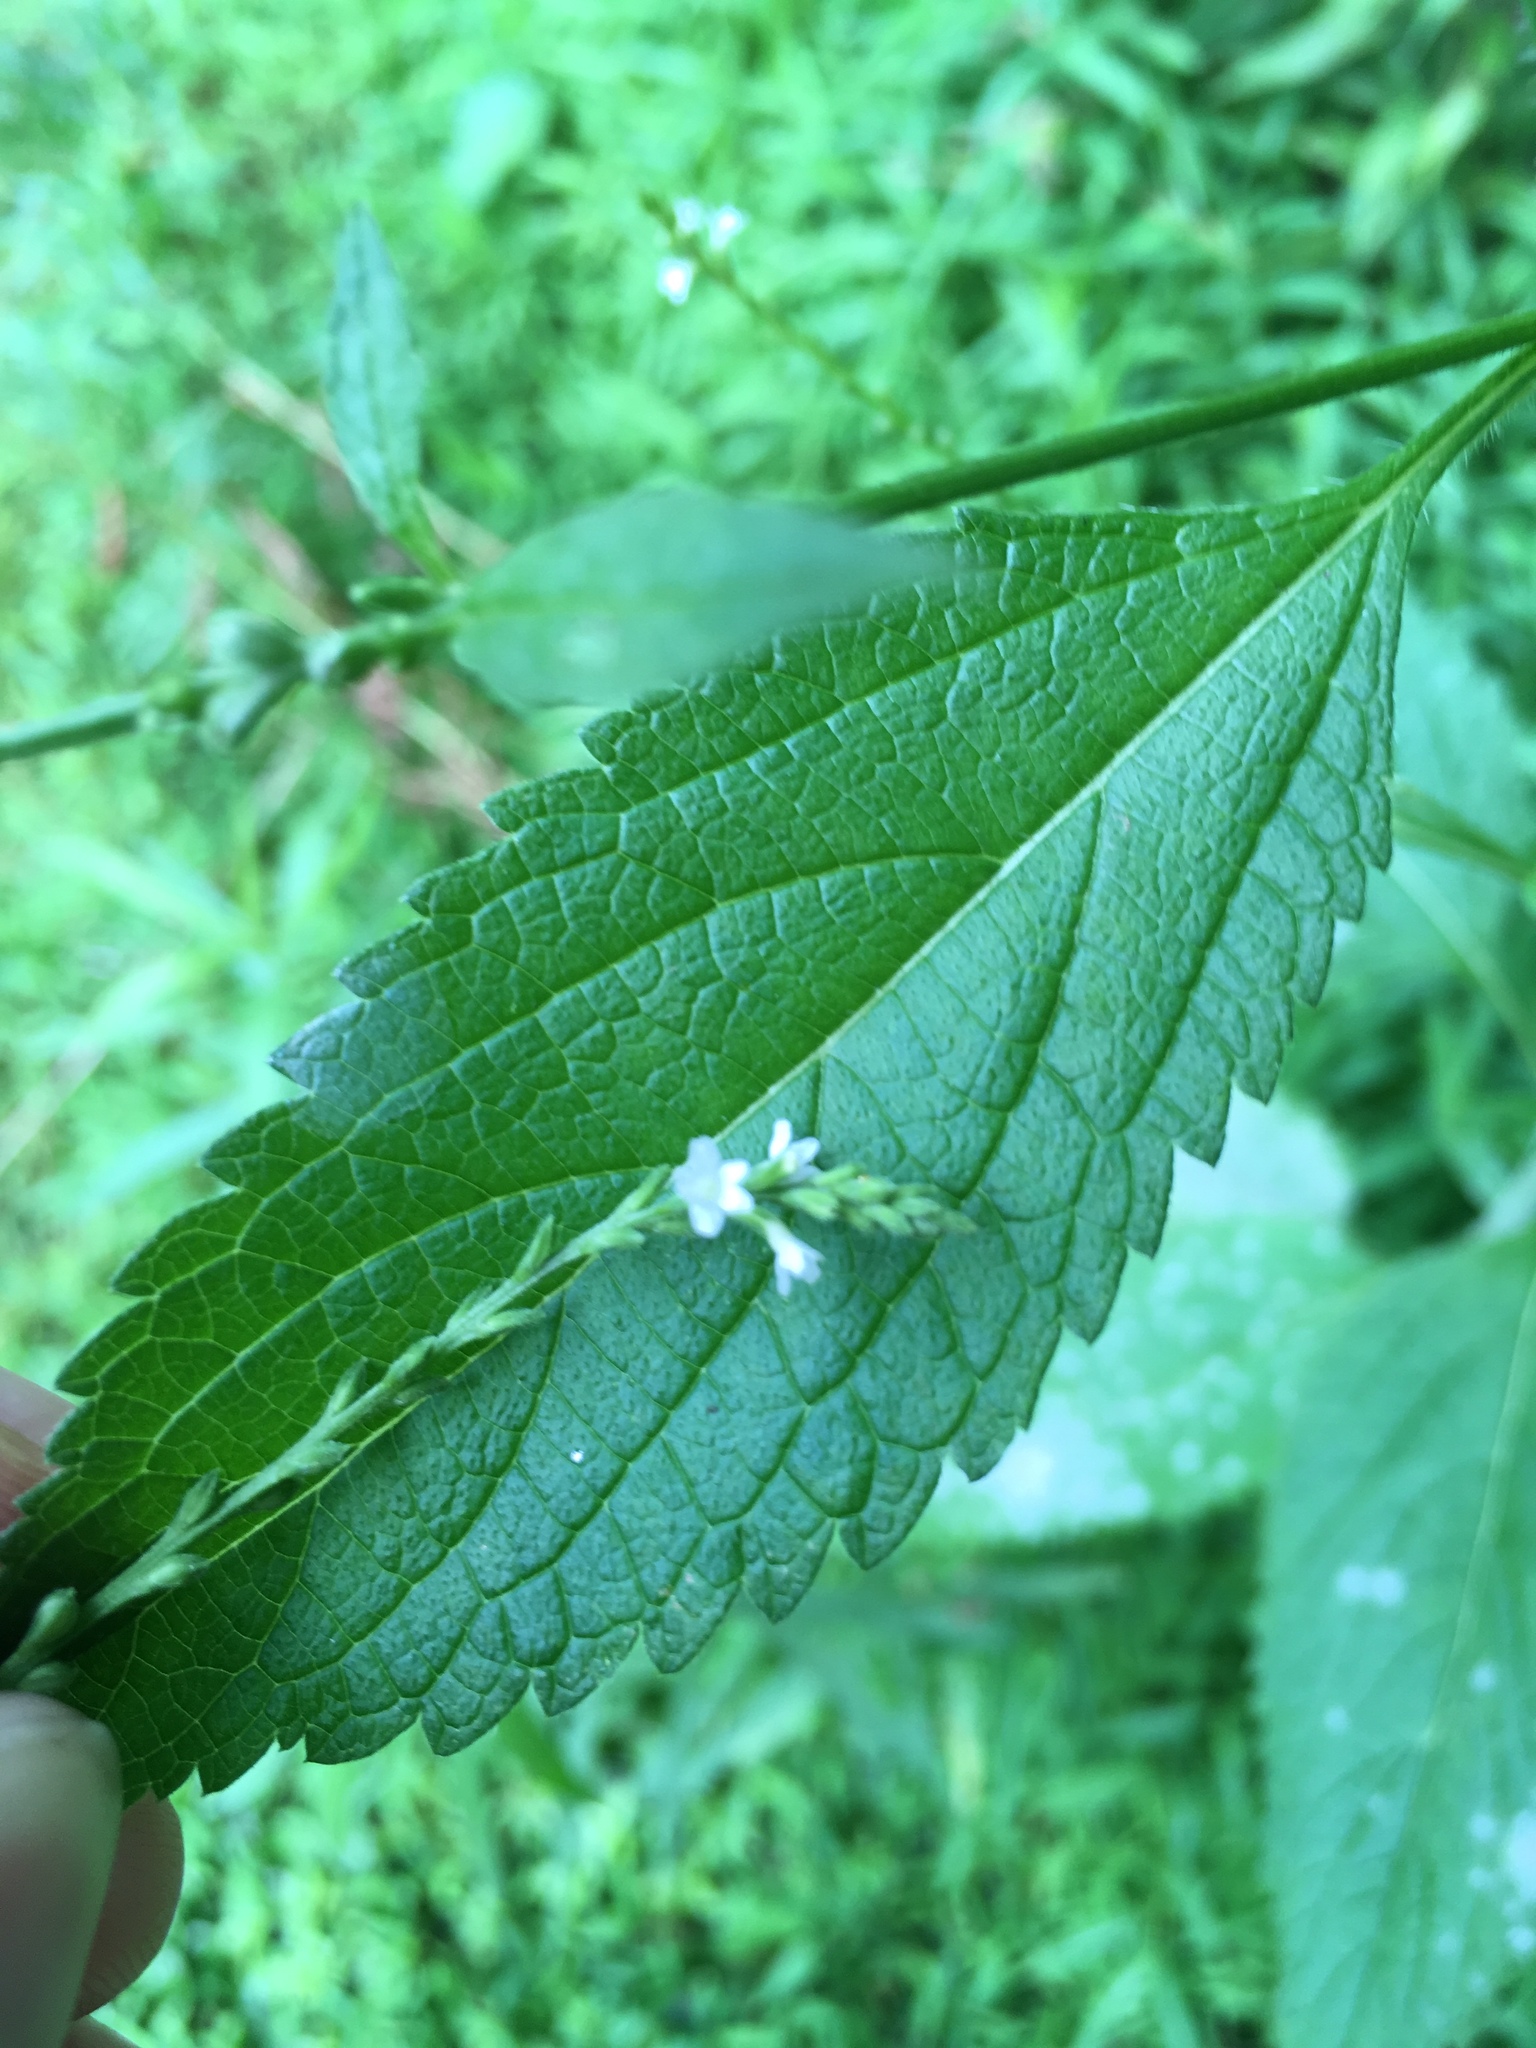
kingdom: Plantae
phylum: Tracheophyta
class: Magnoliopsida
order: Lamiales
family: Verbenaceae
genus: Verbena
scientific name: Verbena urticifolia
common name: Nettle-leaved vervain
